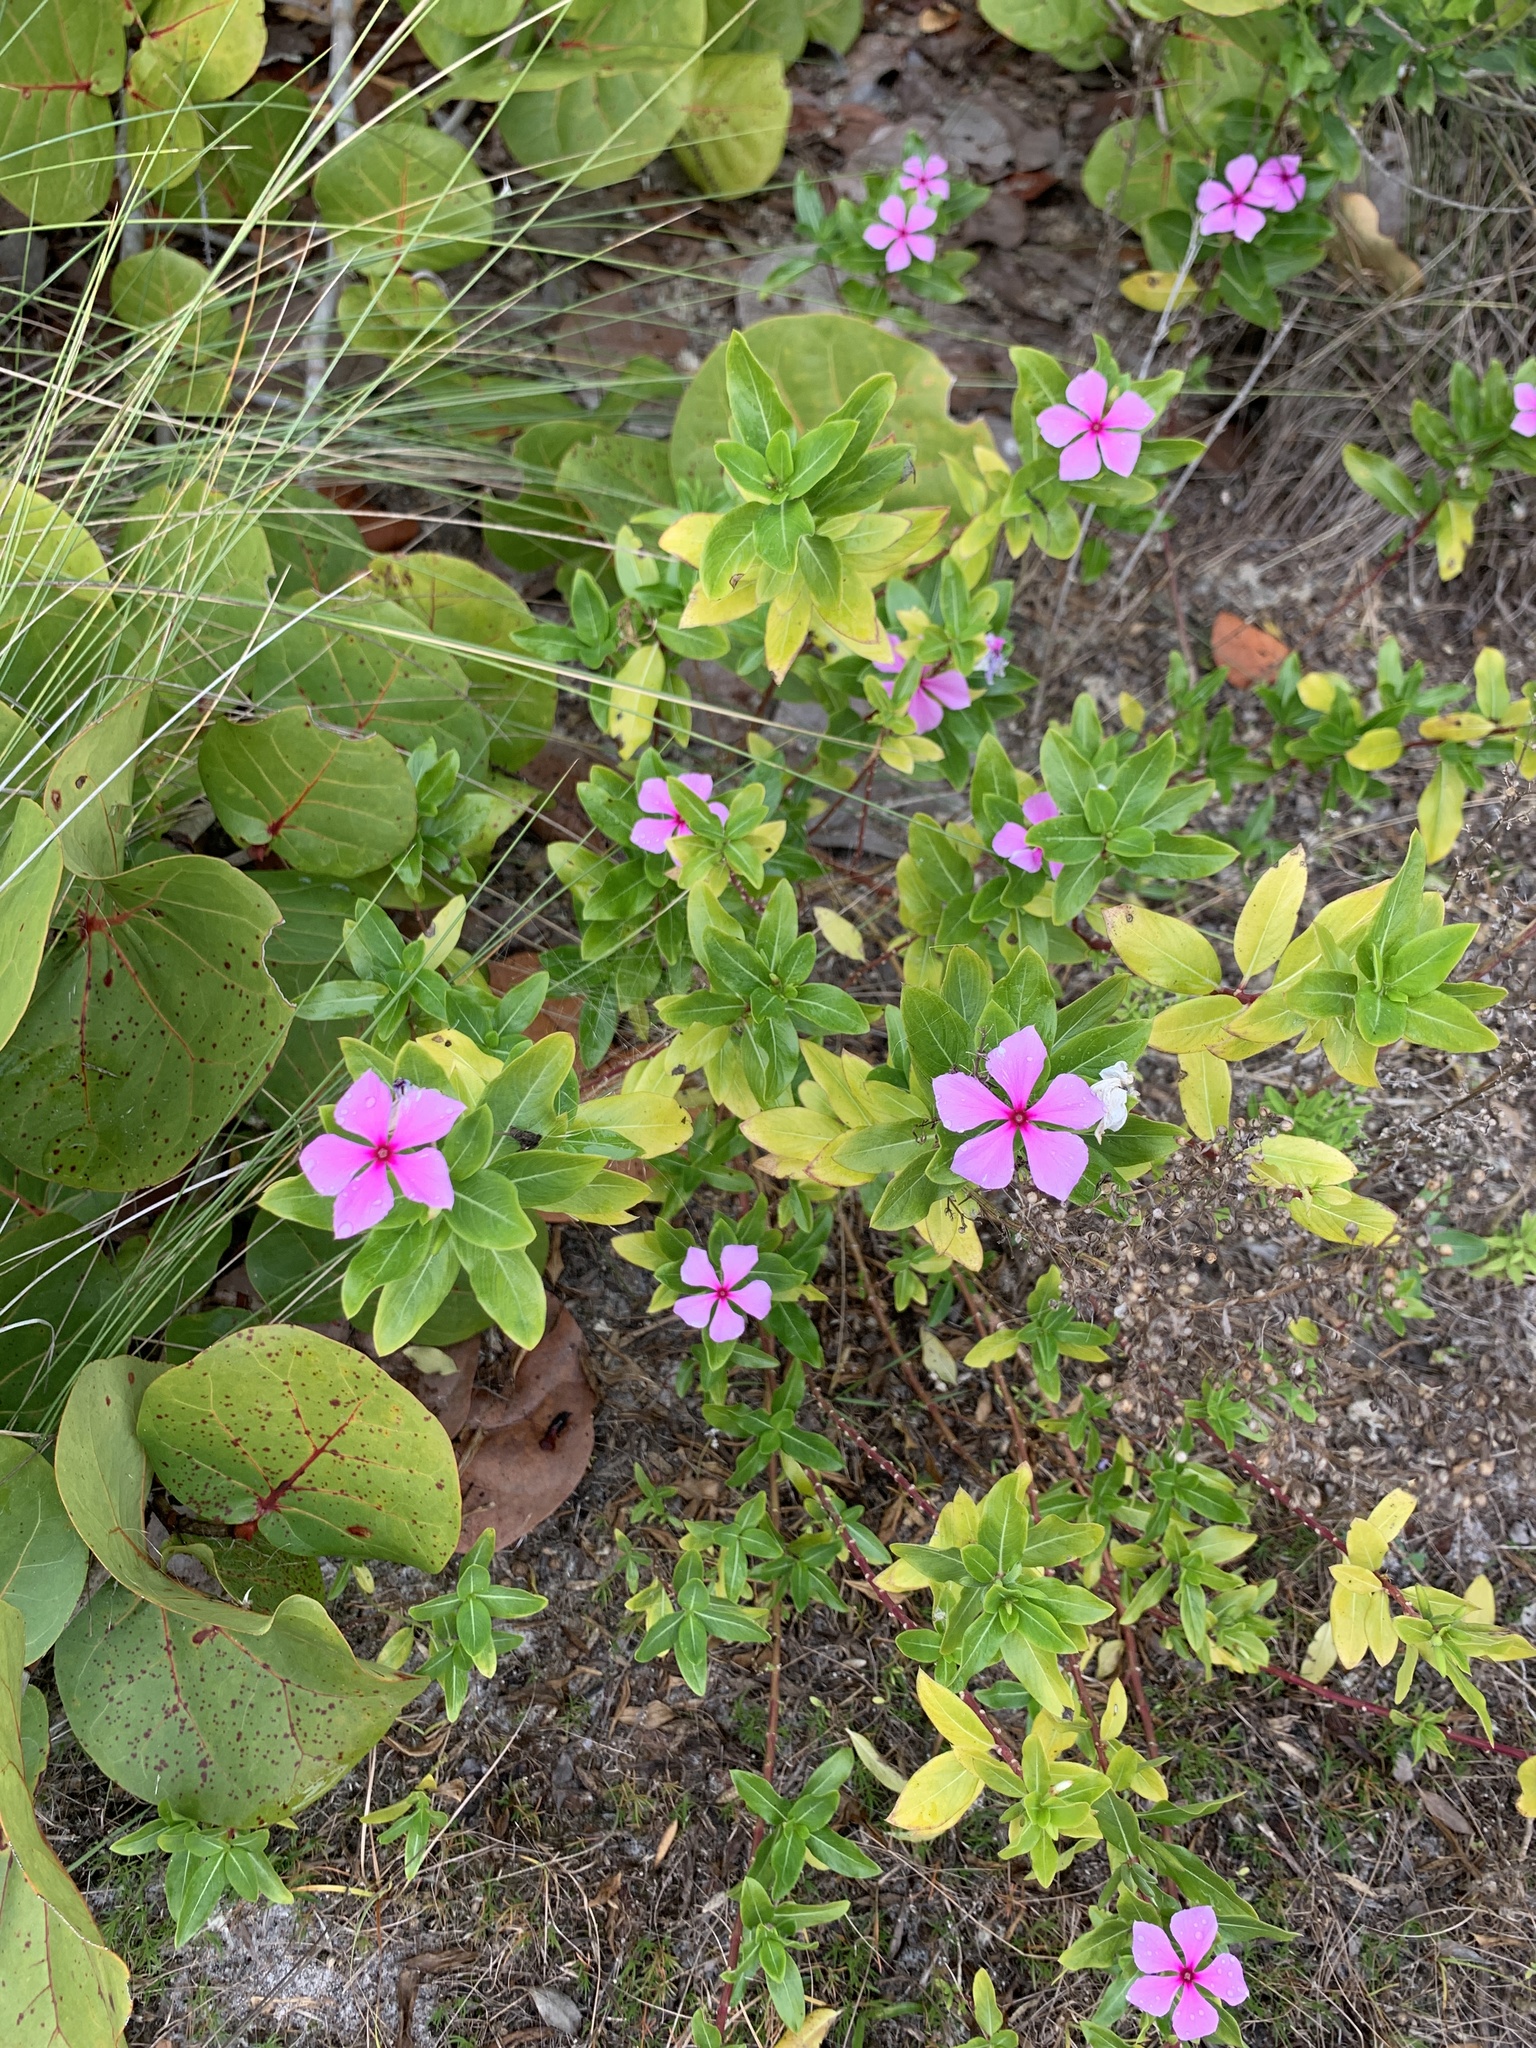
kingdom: Plantae
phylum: Tracheophyta
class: Magnoliopsida
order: Gentianales
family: Apocynaceae
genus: Catharanthus
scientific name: Catharanthus roseus
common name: Madagascar periwinkle
